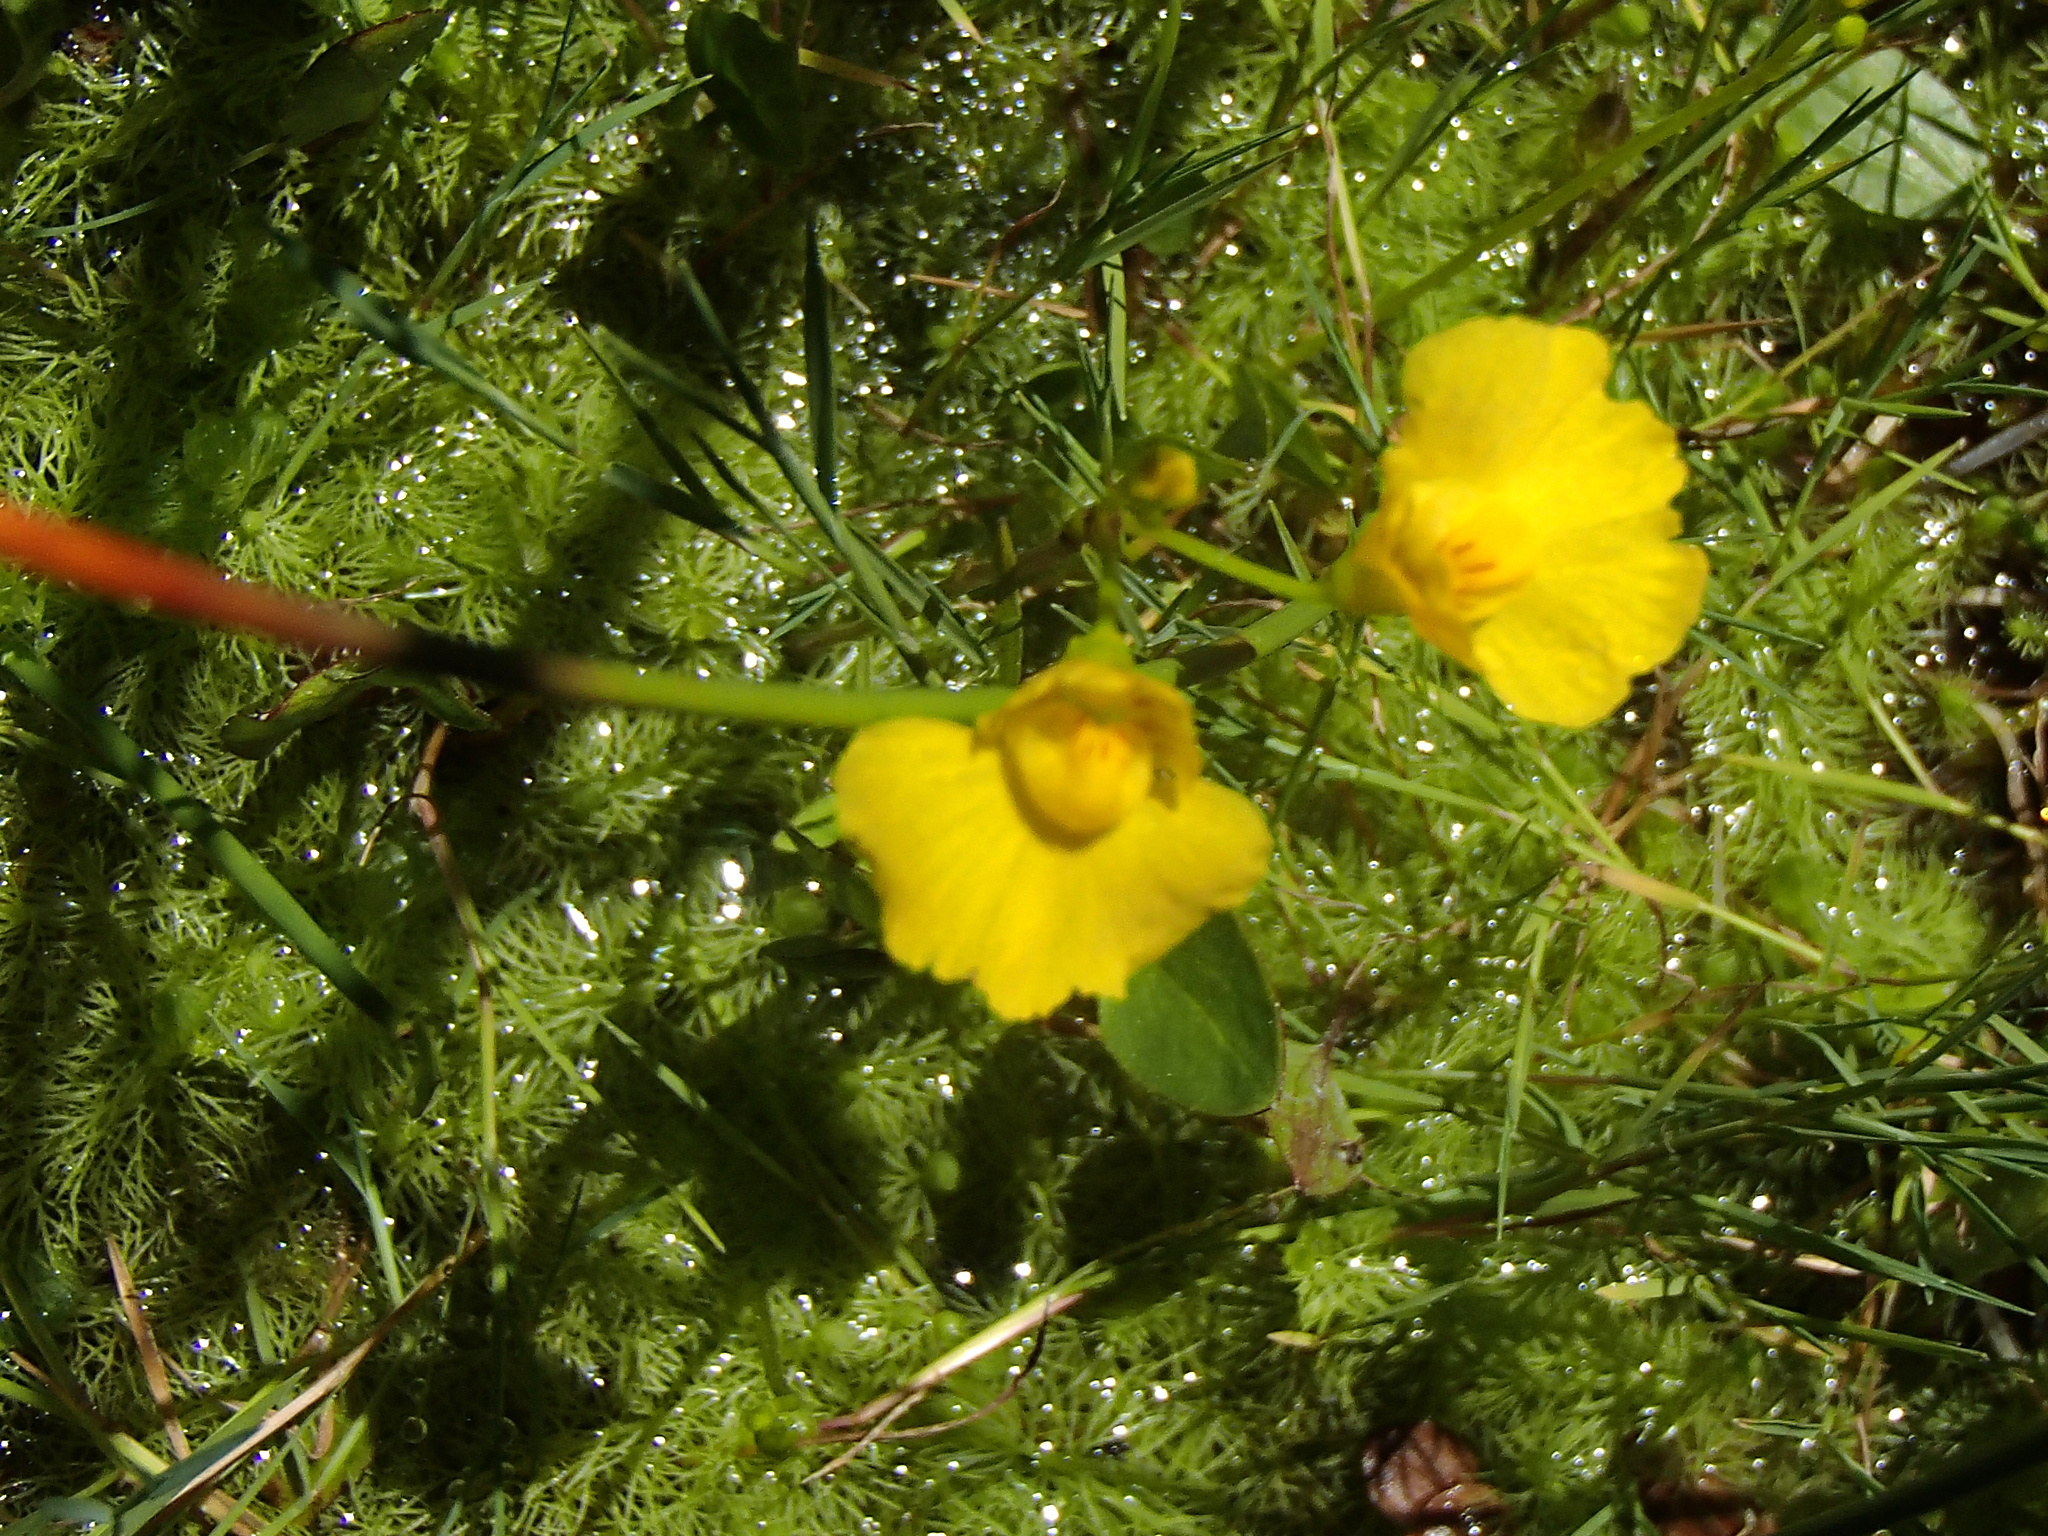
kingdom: Plantae
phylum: Tracheophyta
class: Magnoliopsida
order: Lamiales
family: Lentibulariaceae
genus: Utricularia
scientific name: Utricularia intermedia
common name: Intermediate bladderwort
